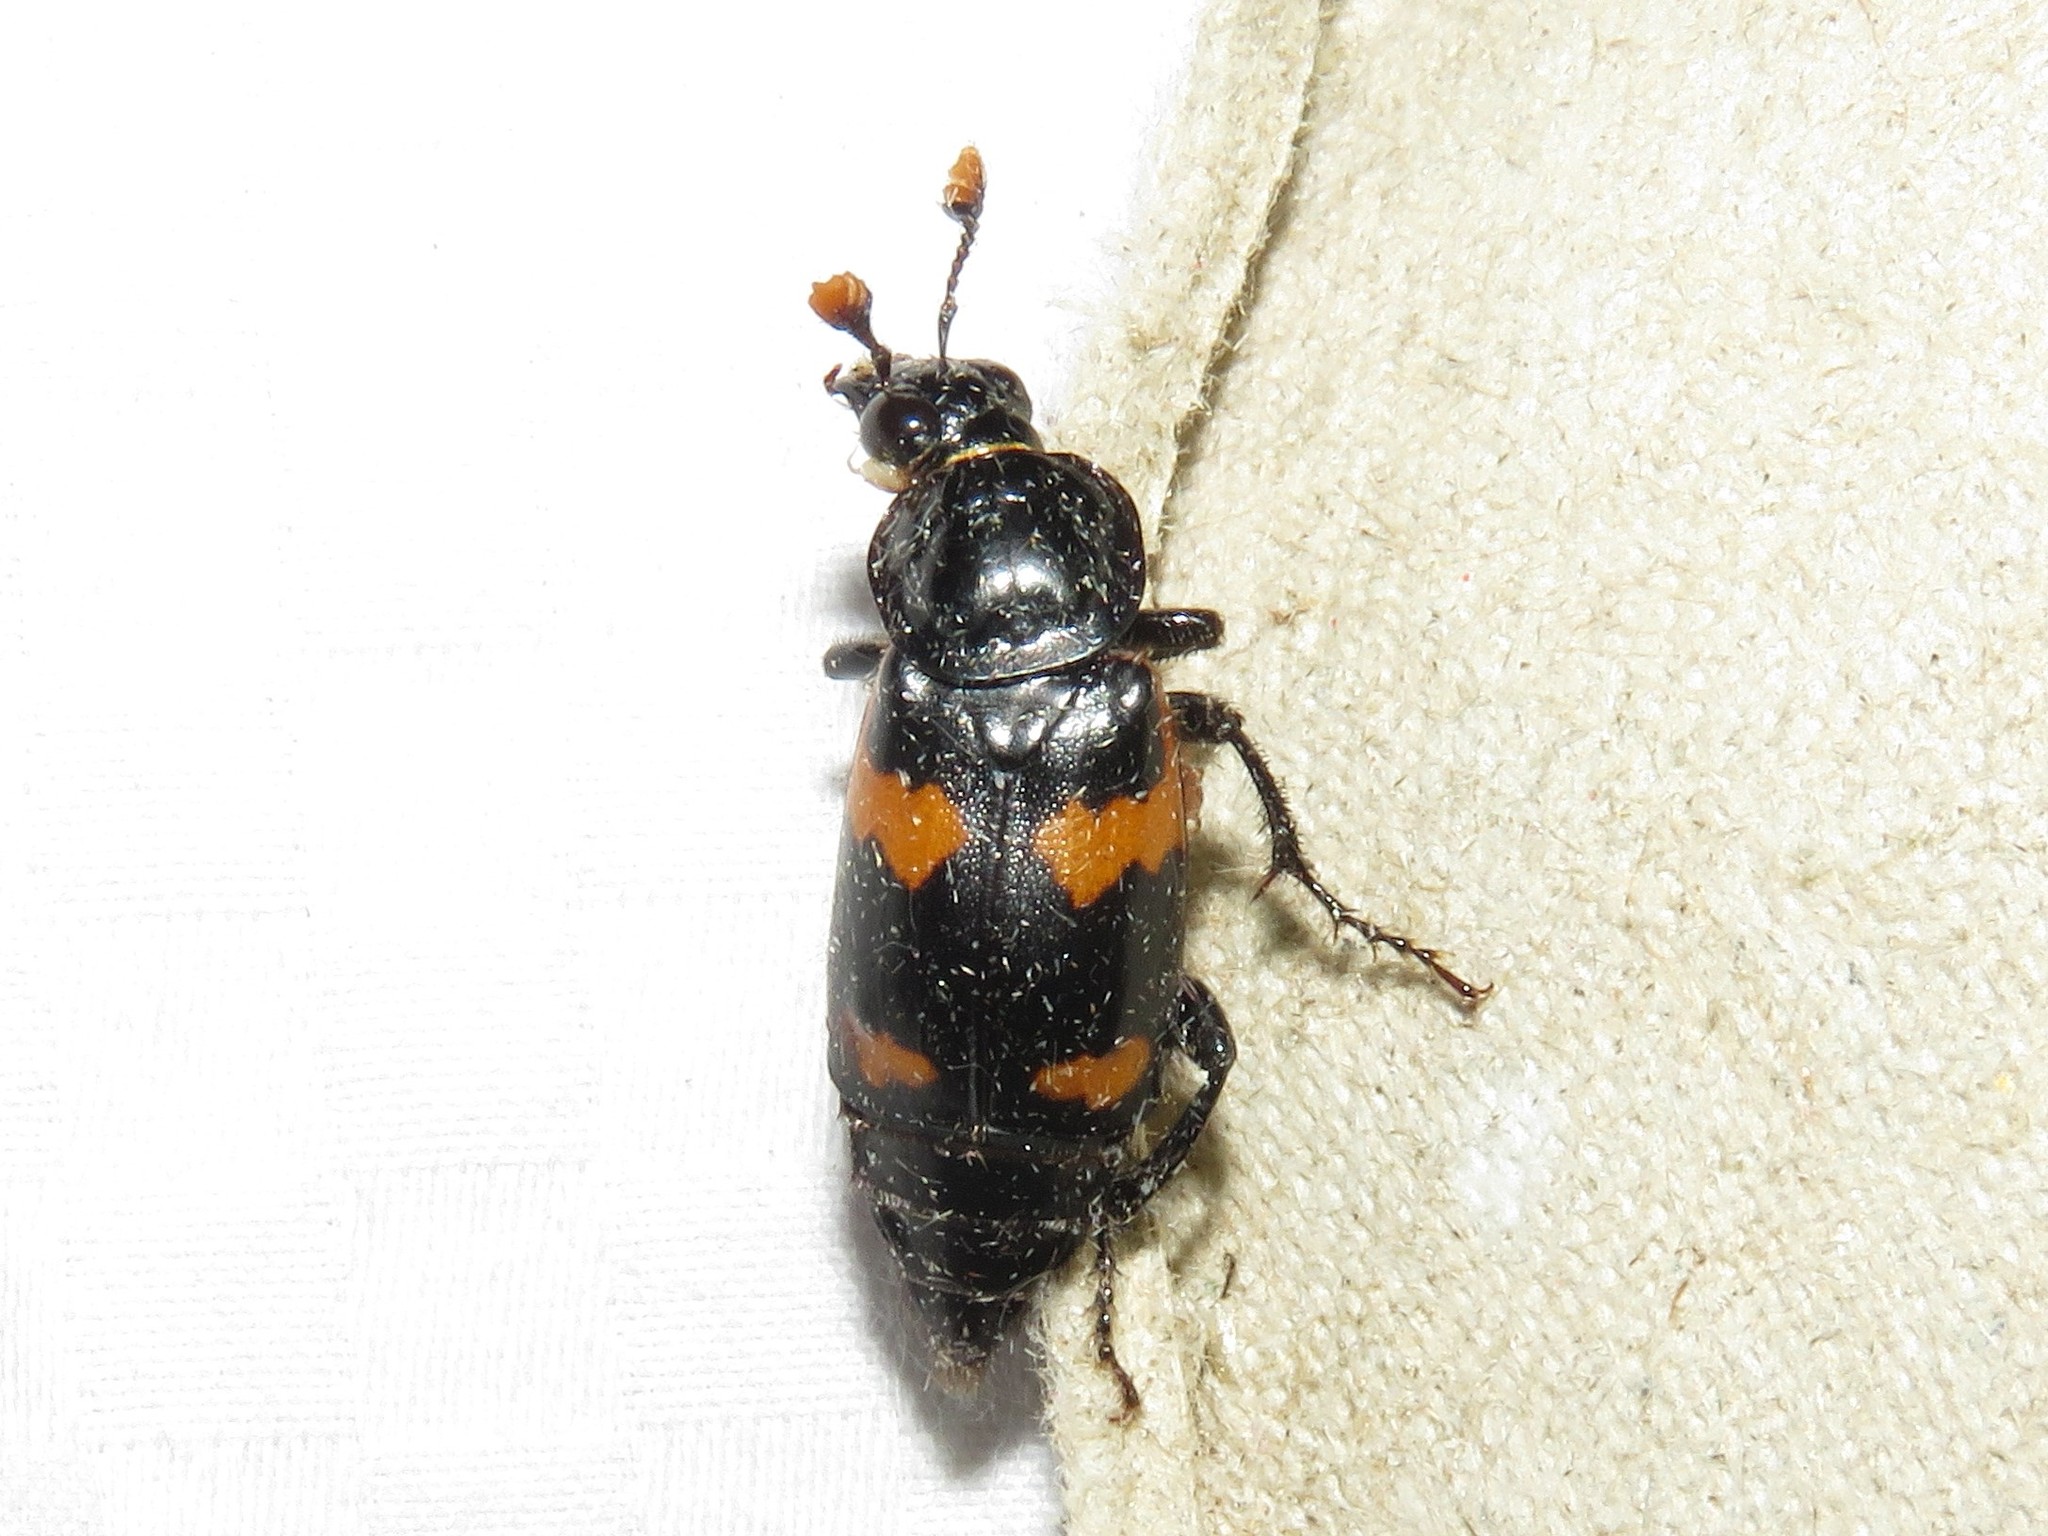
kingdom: Animalia
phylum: Arthropoda
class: Insecta
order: Coleoptera
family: Staphylinidae
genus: Nicrophorus
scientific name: Nicrophorus sayi
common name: Say's burying beetle
